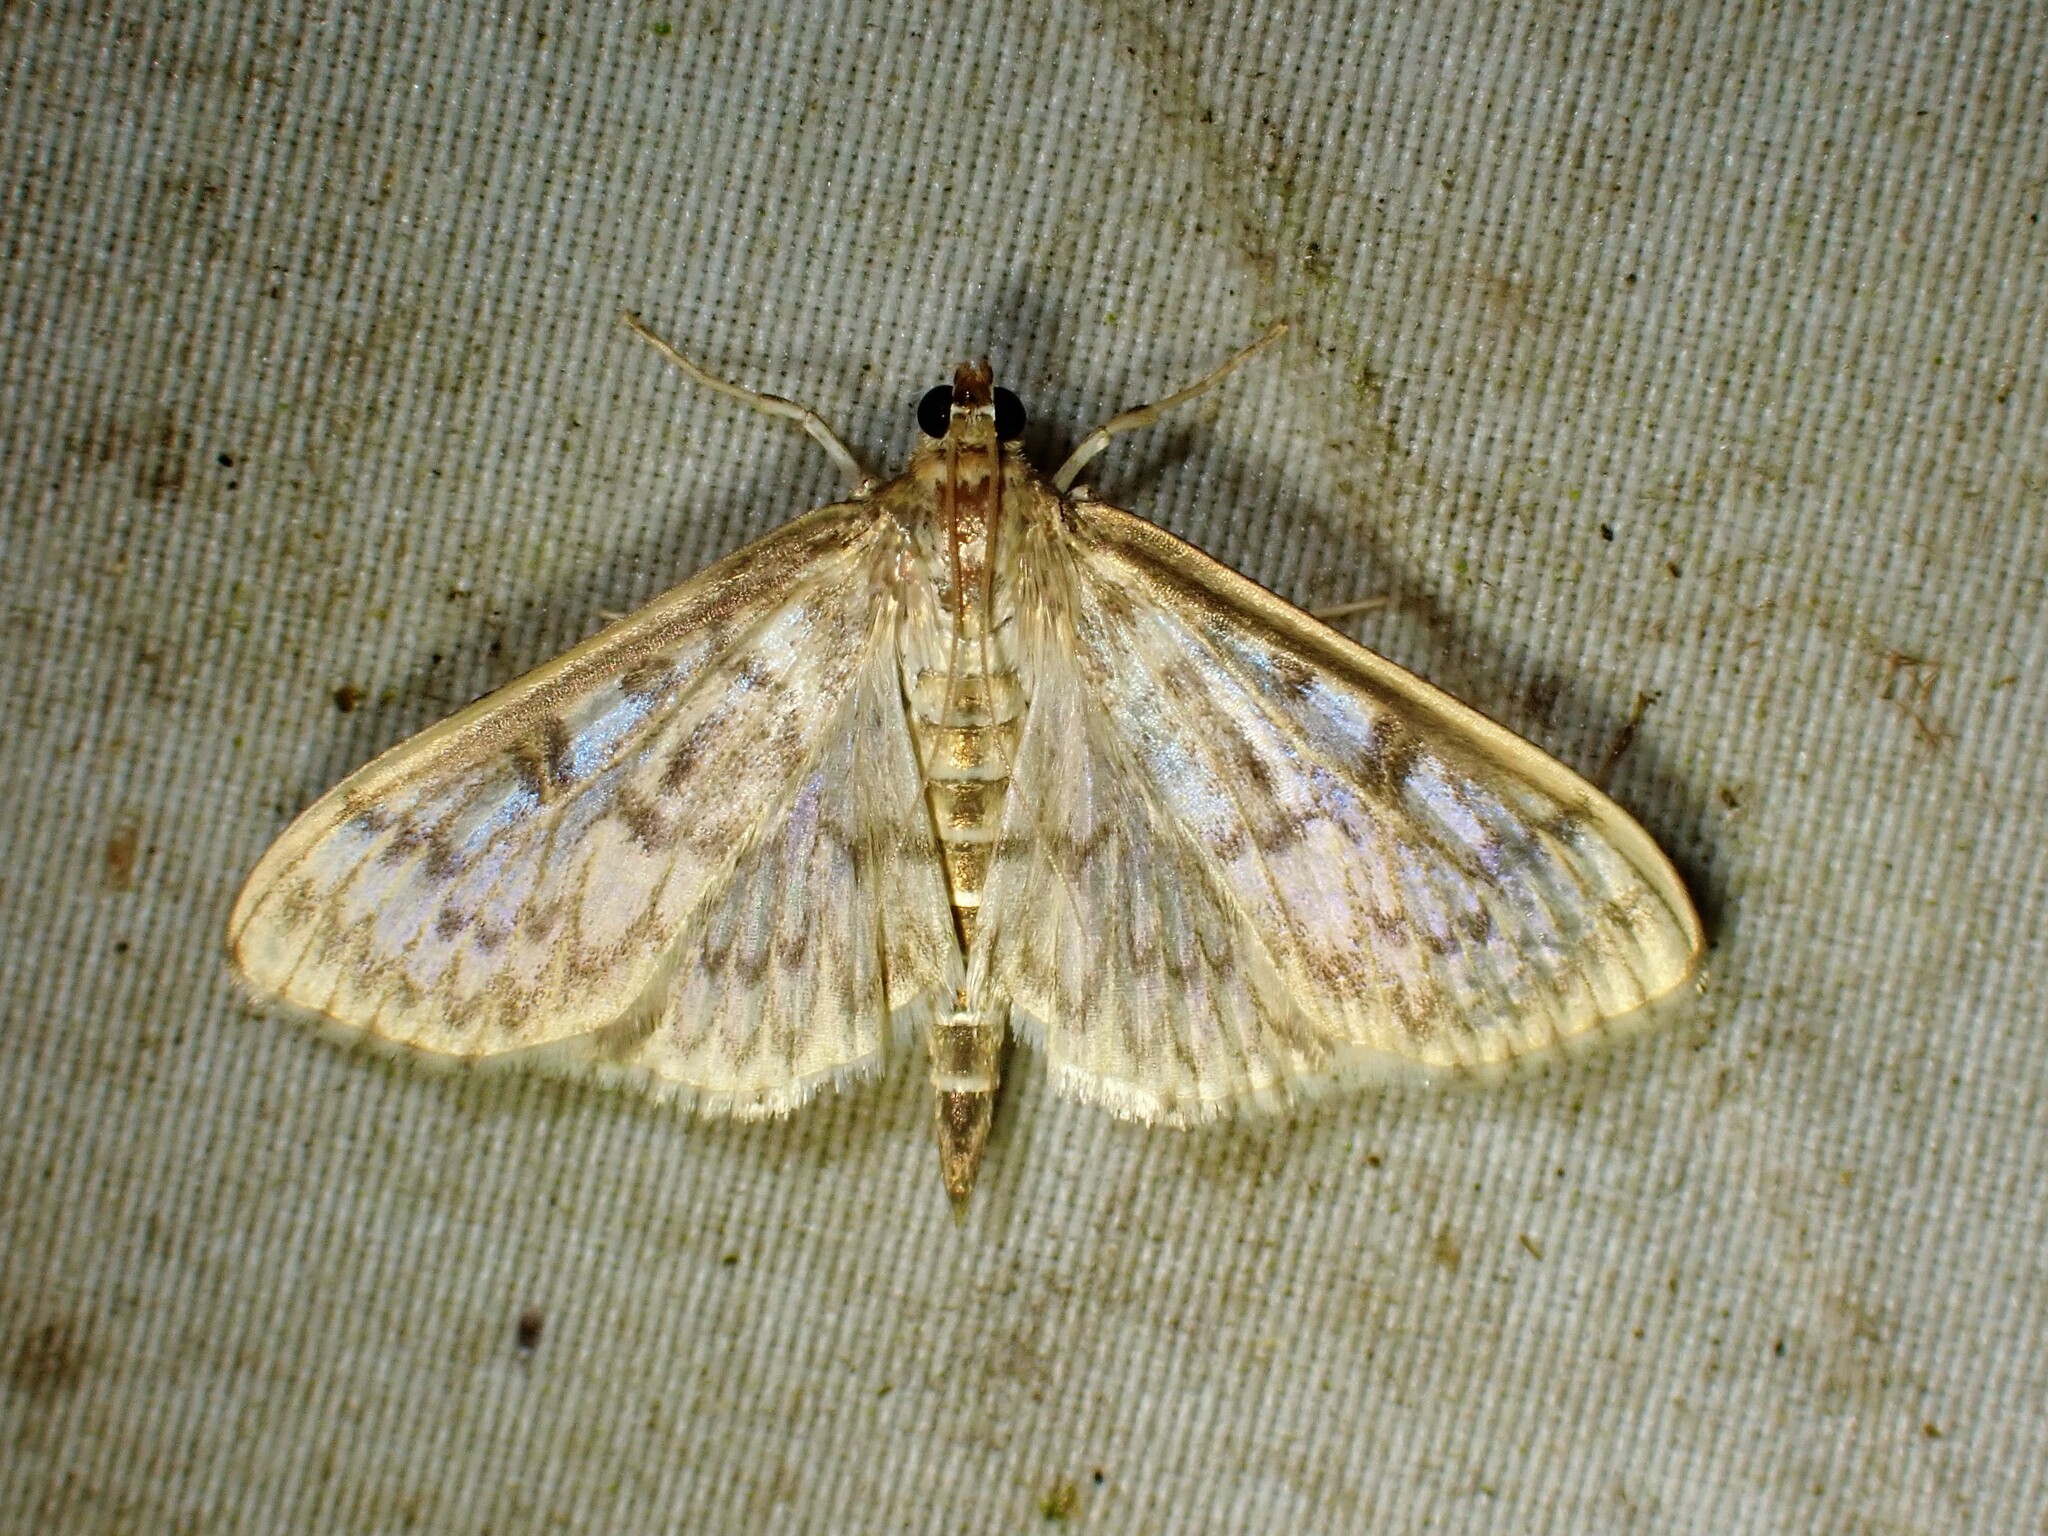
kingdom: Animalia
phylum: Arthropoda
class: Insecta
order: Lepidoptera
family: Crambidae
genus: Herpetogramma
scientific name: Herpetogramma aquilonalis
